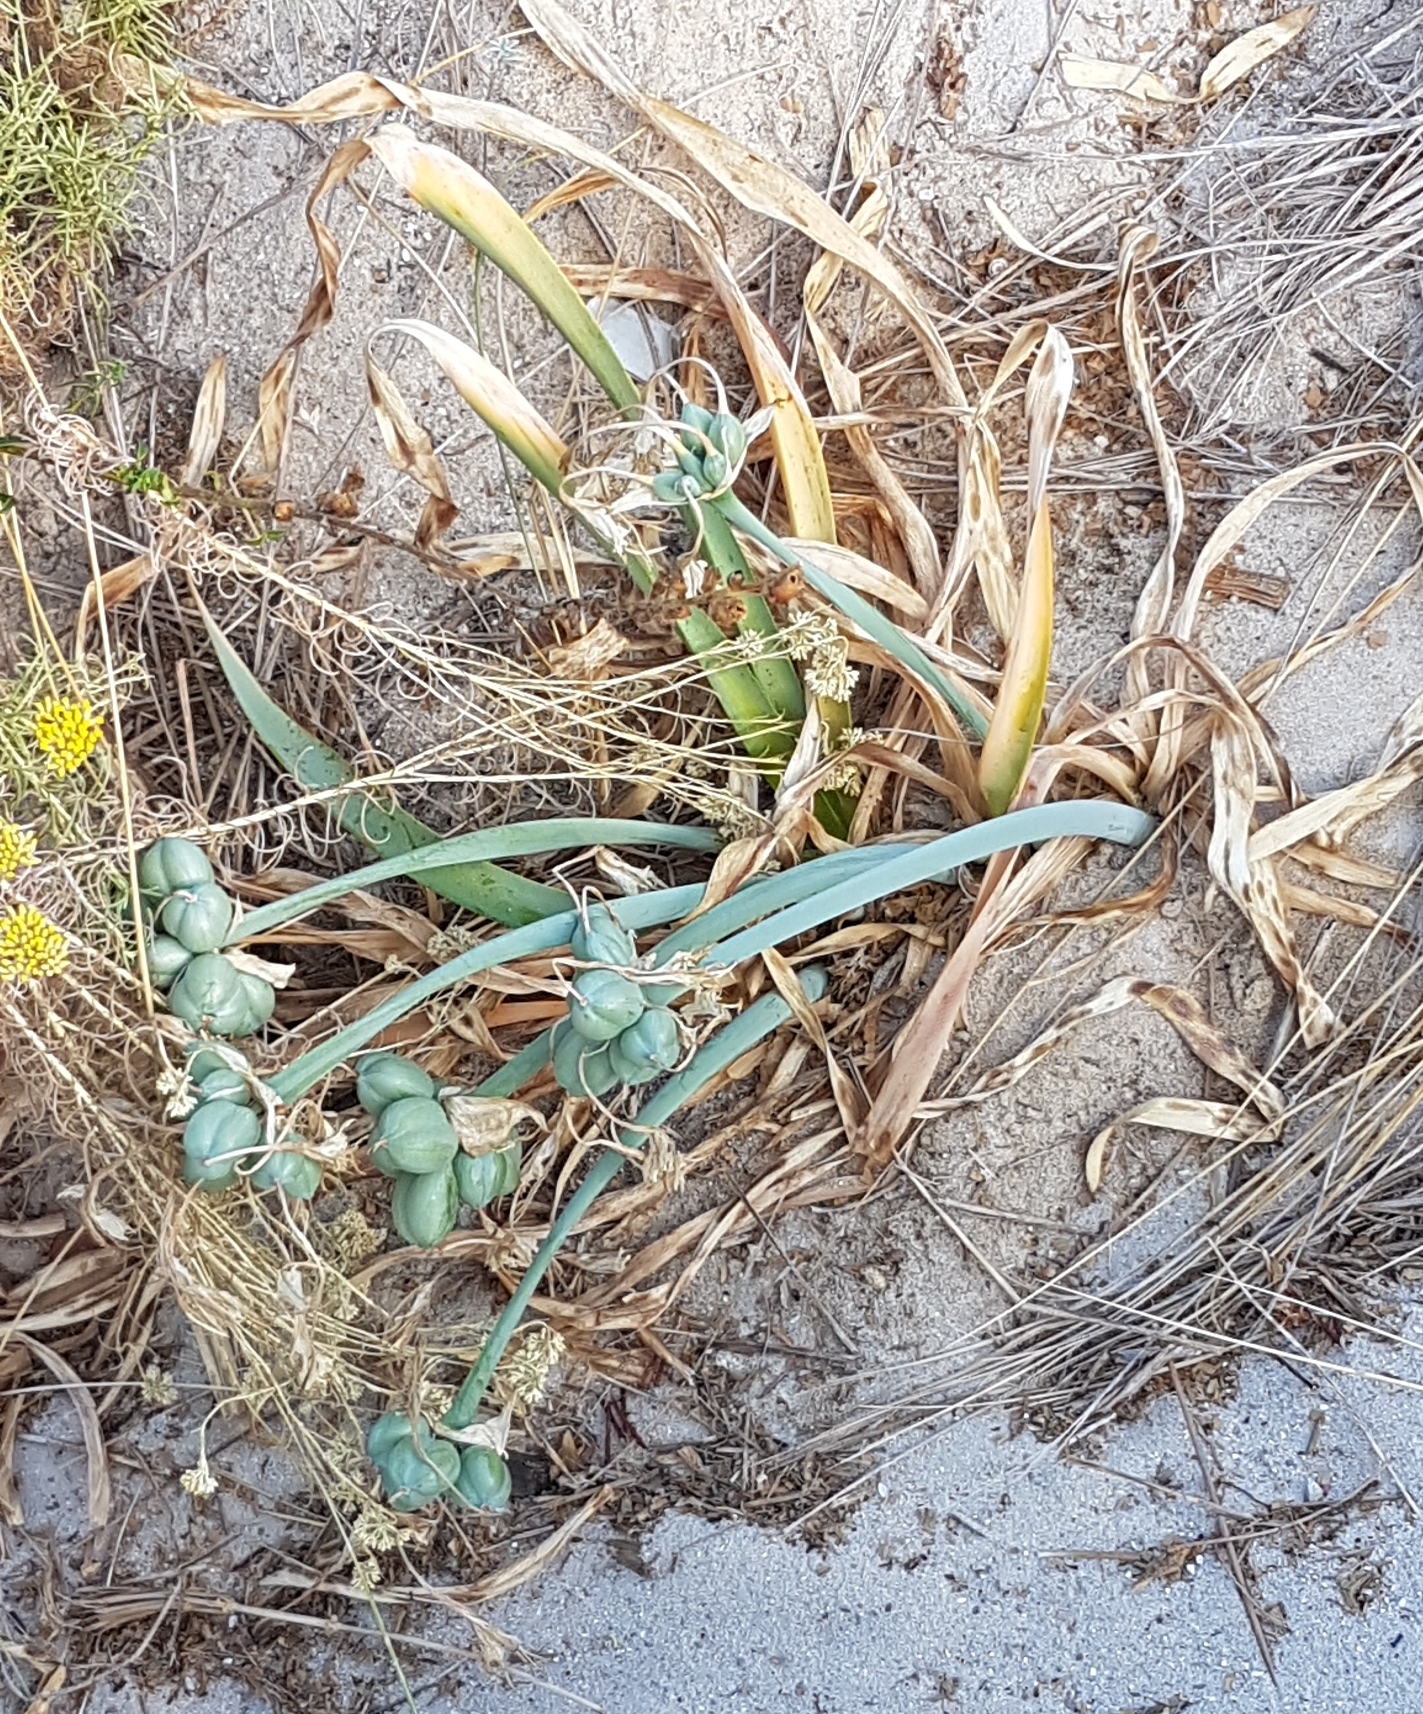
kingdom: Plantae
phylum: Tracheophyta
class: Liliopsida
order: Asparagales
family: Amaryllidaceae
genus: Pancratium
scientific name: Pancratium maritimum
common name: Sea-daffodil
